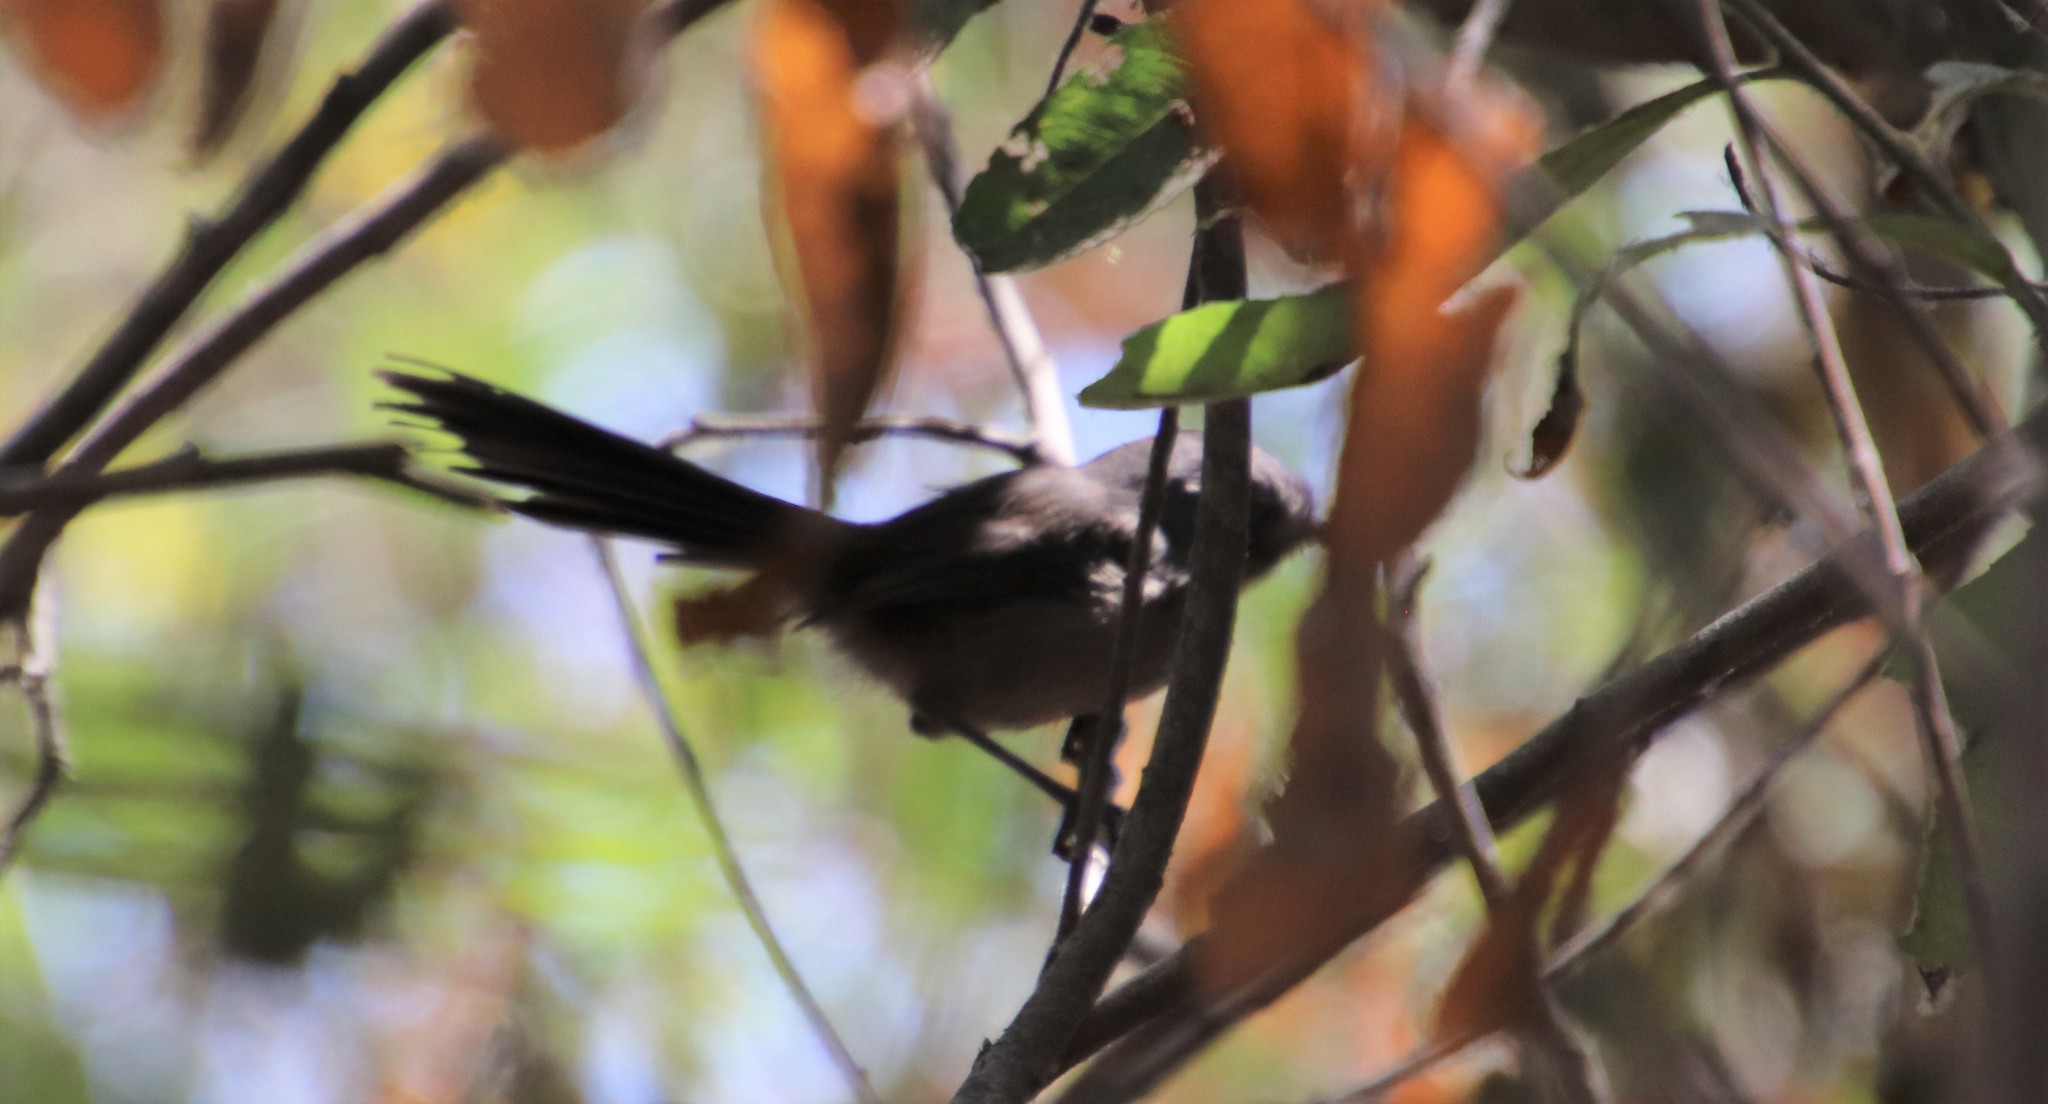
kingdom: Animalia
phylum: Chordata
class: Aves
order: Passeriformes
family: Sylviidae
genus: Chamaea
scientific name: Chamaea fasciata
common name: Wrentit
